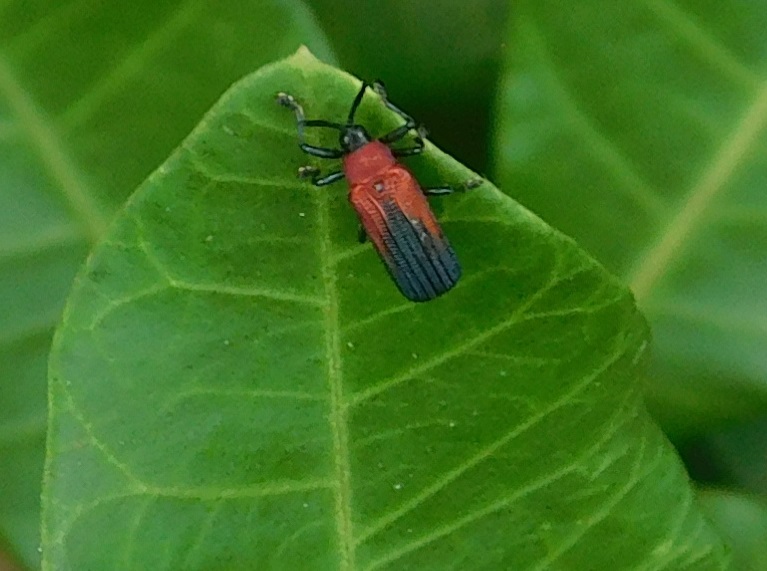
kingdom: Animalia
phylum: Arthropoda
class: Insecta
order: Coleoptera
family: Chrysomelidae
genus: Chalepus
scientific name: Chalepus sanguinicollis
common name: Red-shouldered leaf beetle
